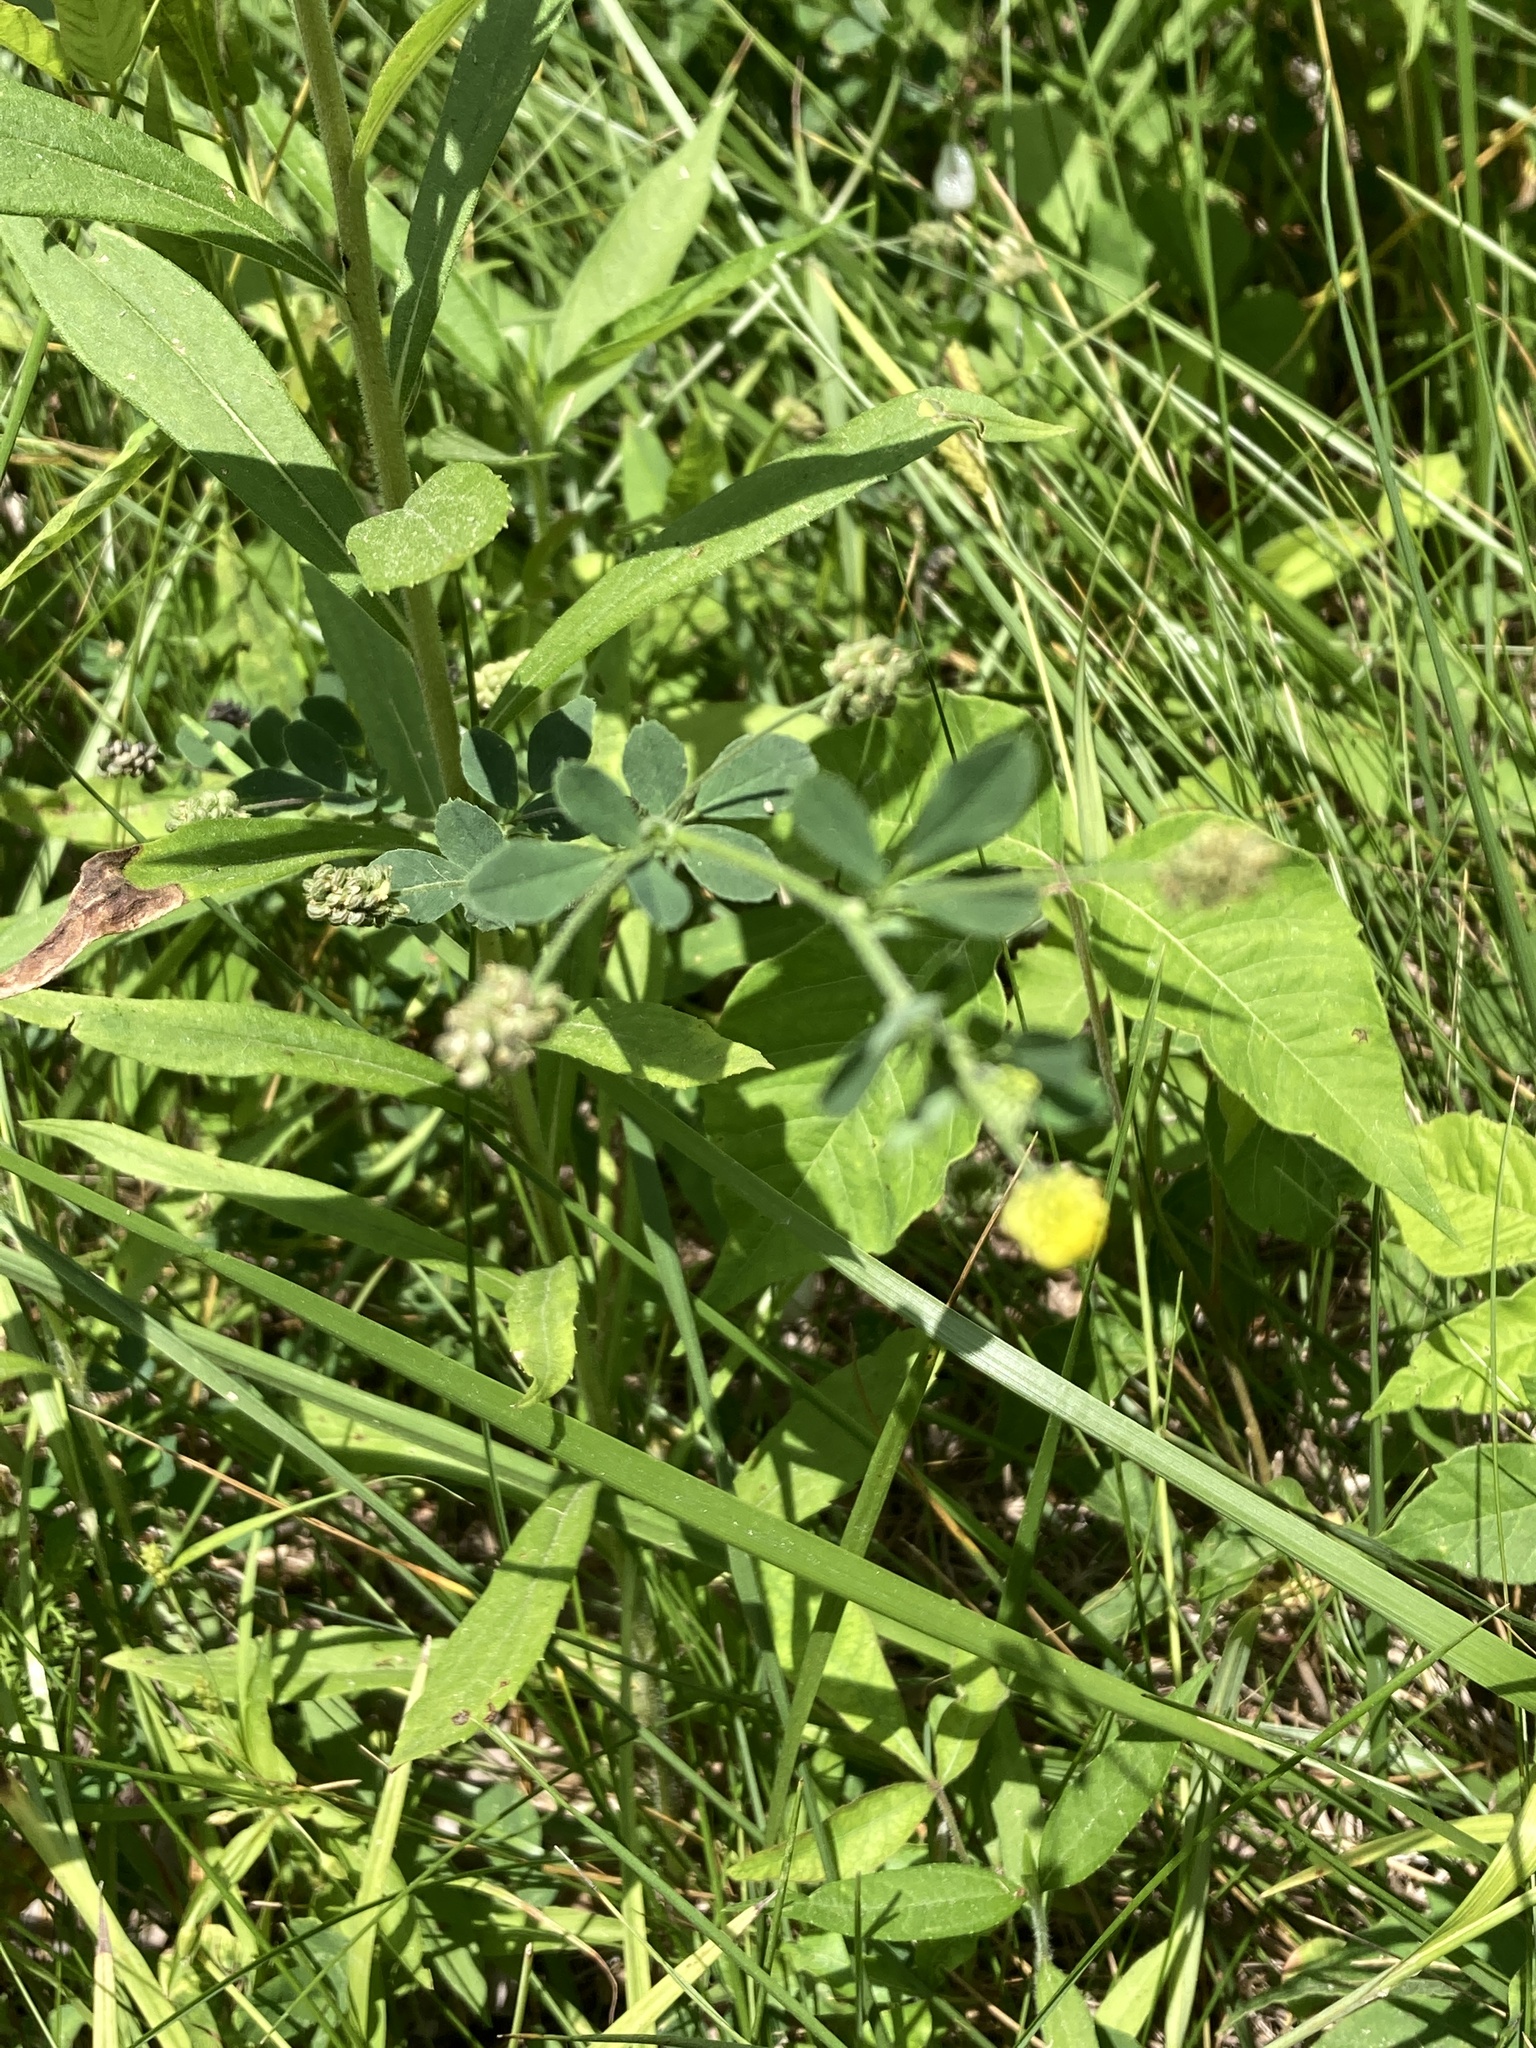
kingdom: Plantae
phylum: Tracheophyta
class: Magnoliopsida
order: Fabales
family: Fabaceae
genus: Medicago
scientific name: Medicago lupulina
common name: Black medick
